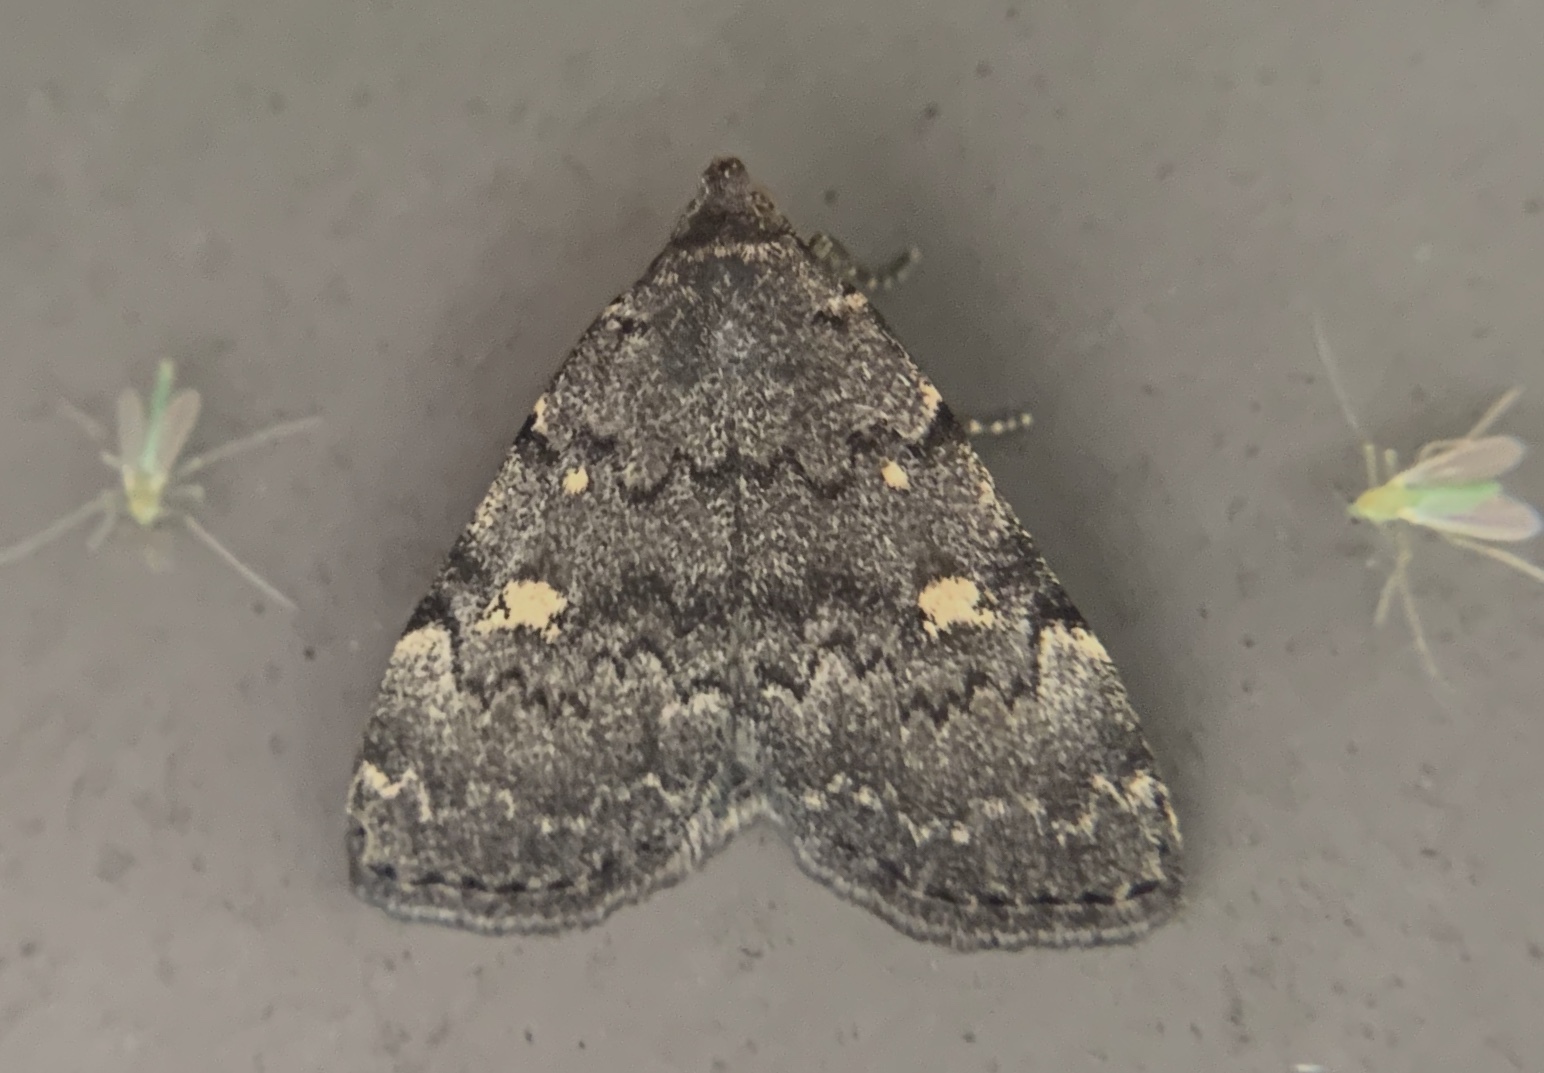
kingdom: Animalia
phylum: Arthropoda
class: Insecta
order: Lepidoptera
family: Erebidae
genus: Idia
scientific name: Idia aemula
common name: Common idia moth
